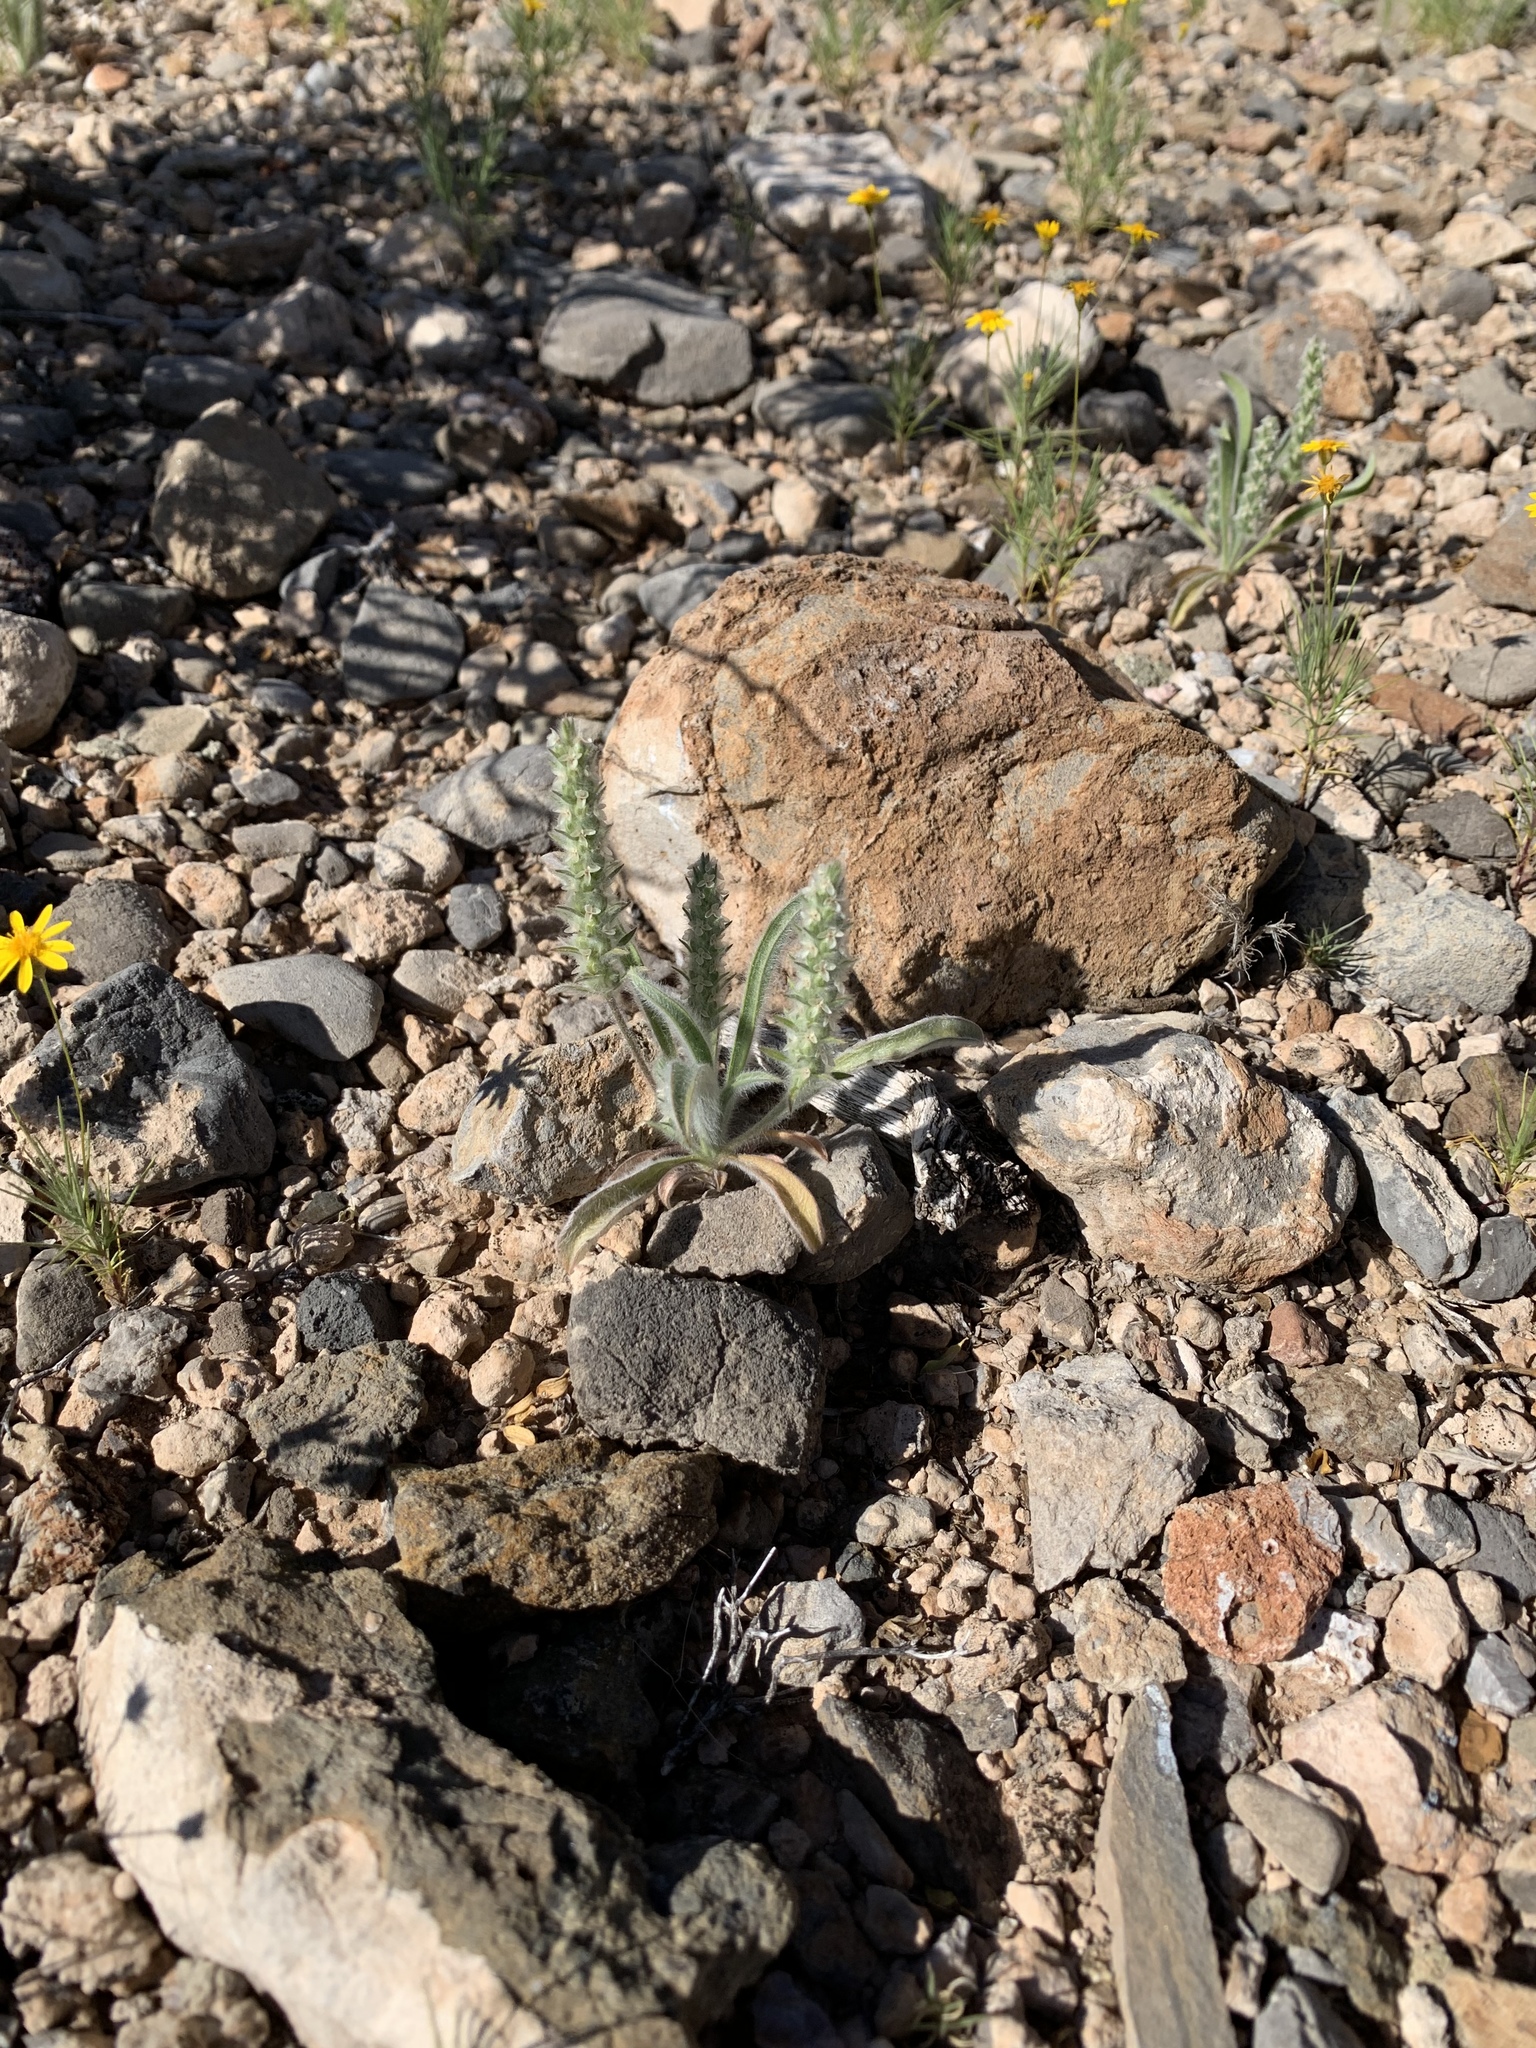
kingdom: Plantae
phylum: Tracheophyta
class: Magnoliopsida
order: Lamiales
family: Plantaginaceae
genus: Plantago
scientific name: Plantago patagonica
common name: Patagonia indian-wheat
